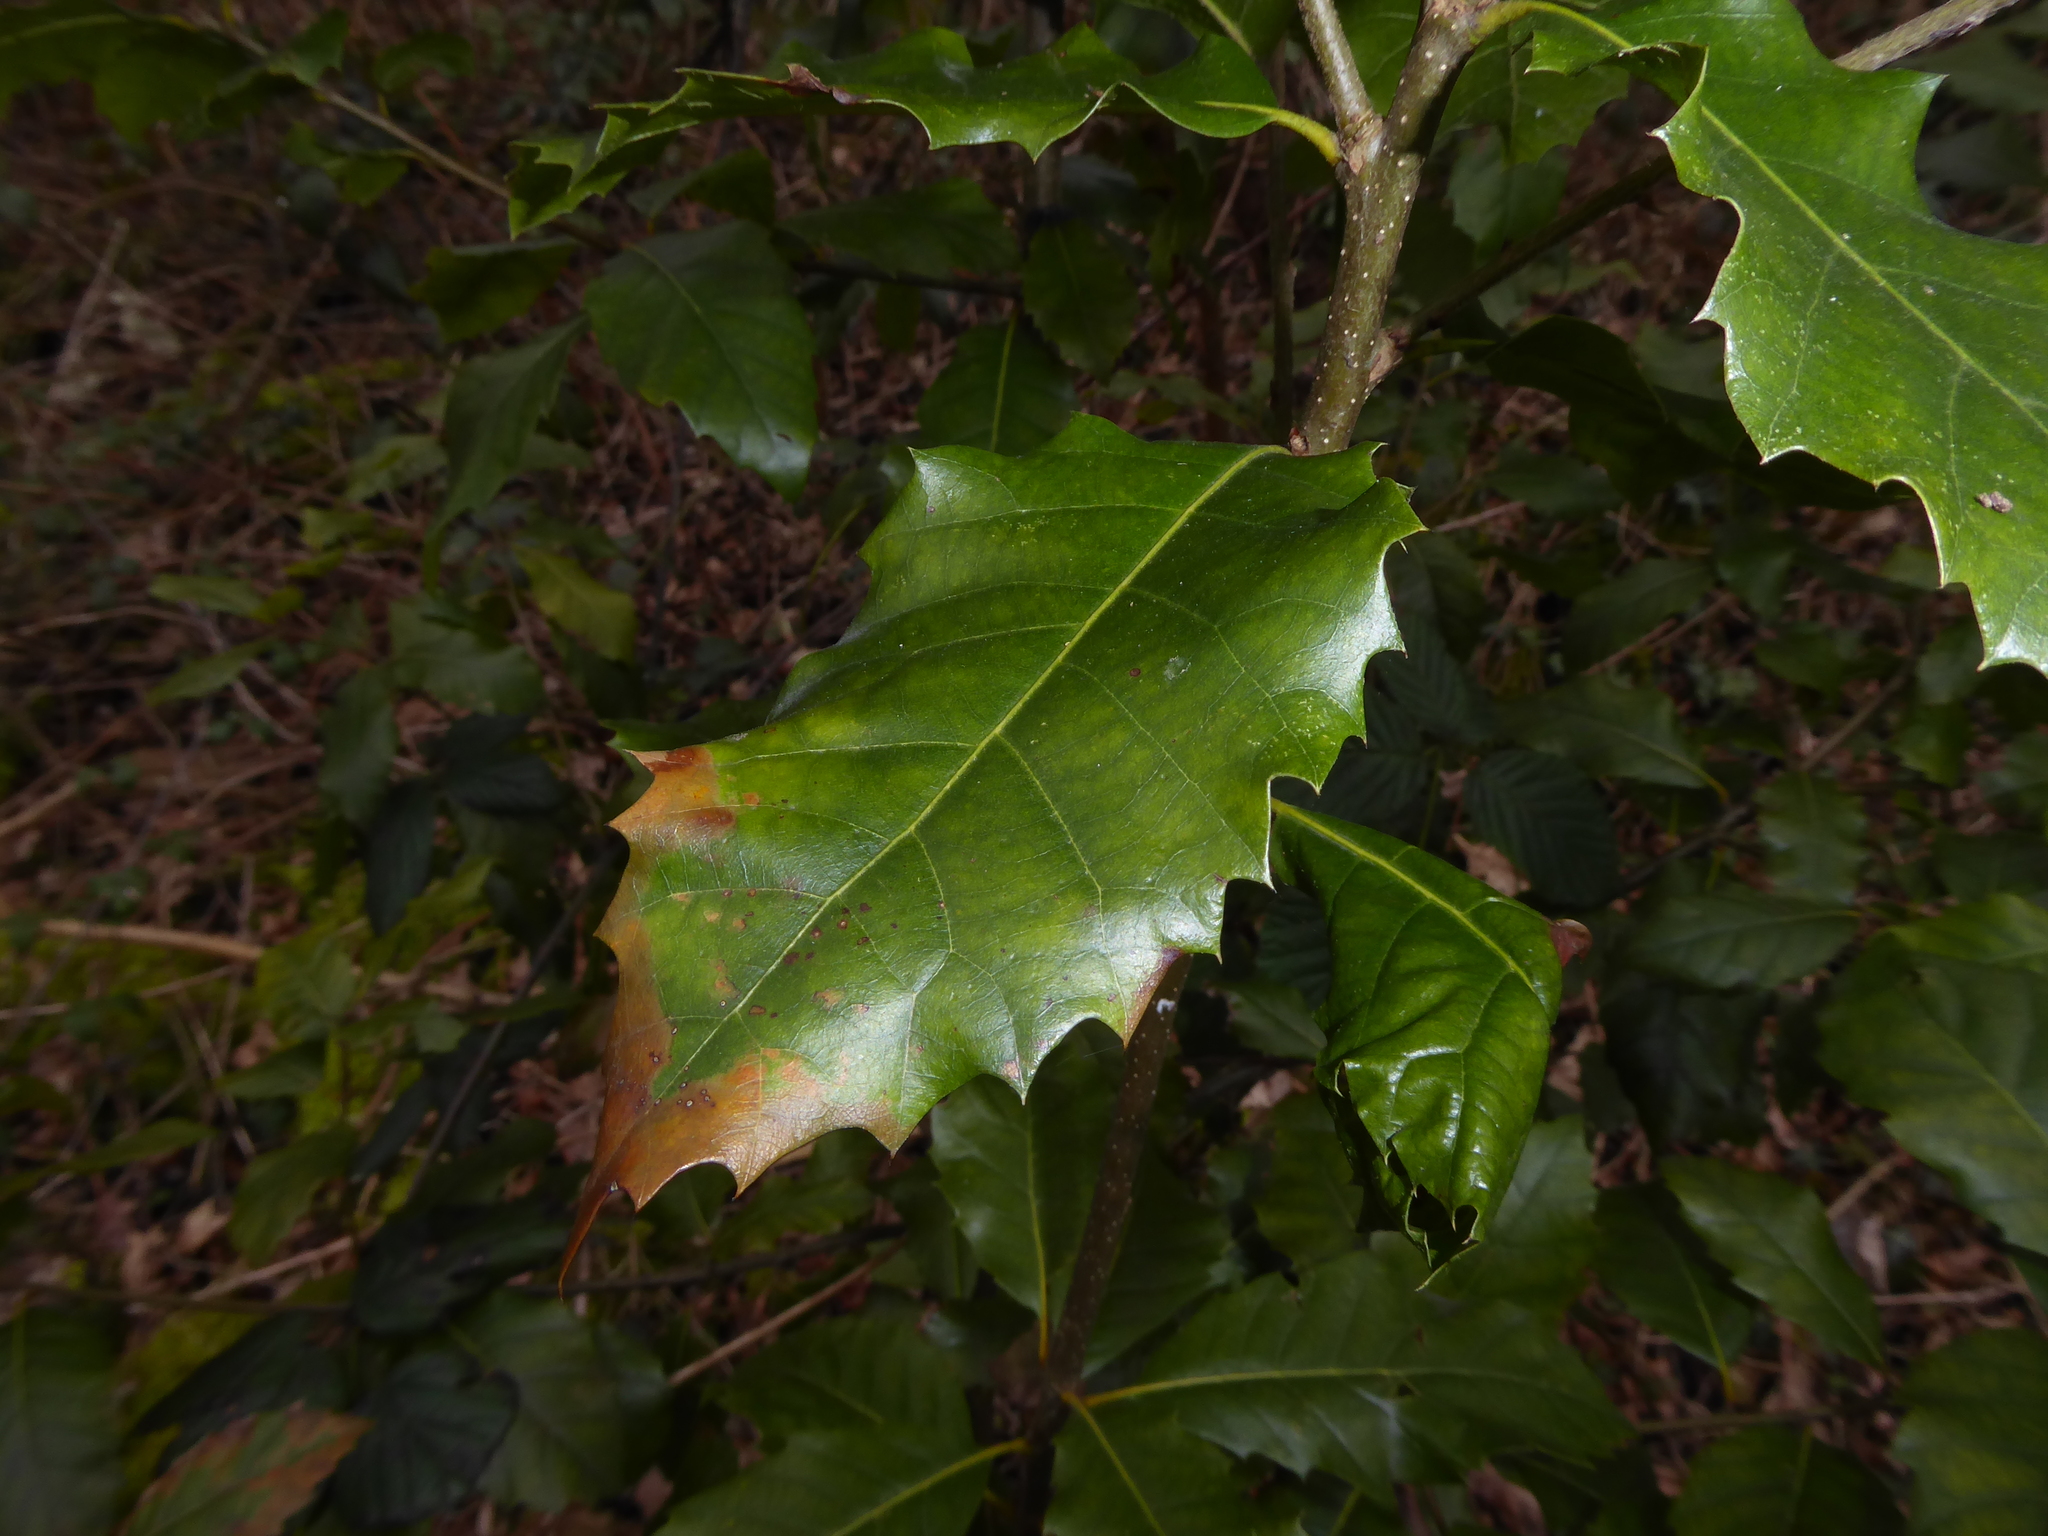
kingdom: Plantae
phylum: Tracheophyta
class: Magnoliopsida
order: Fagales
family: Fagaceae
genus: Quercus
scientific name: Quercus ilex
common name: Evergreen oak
